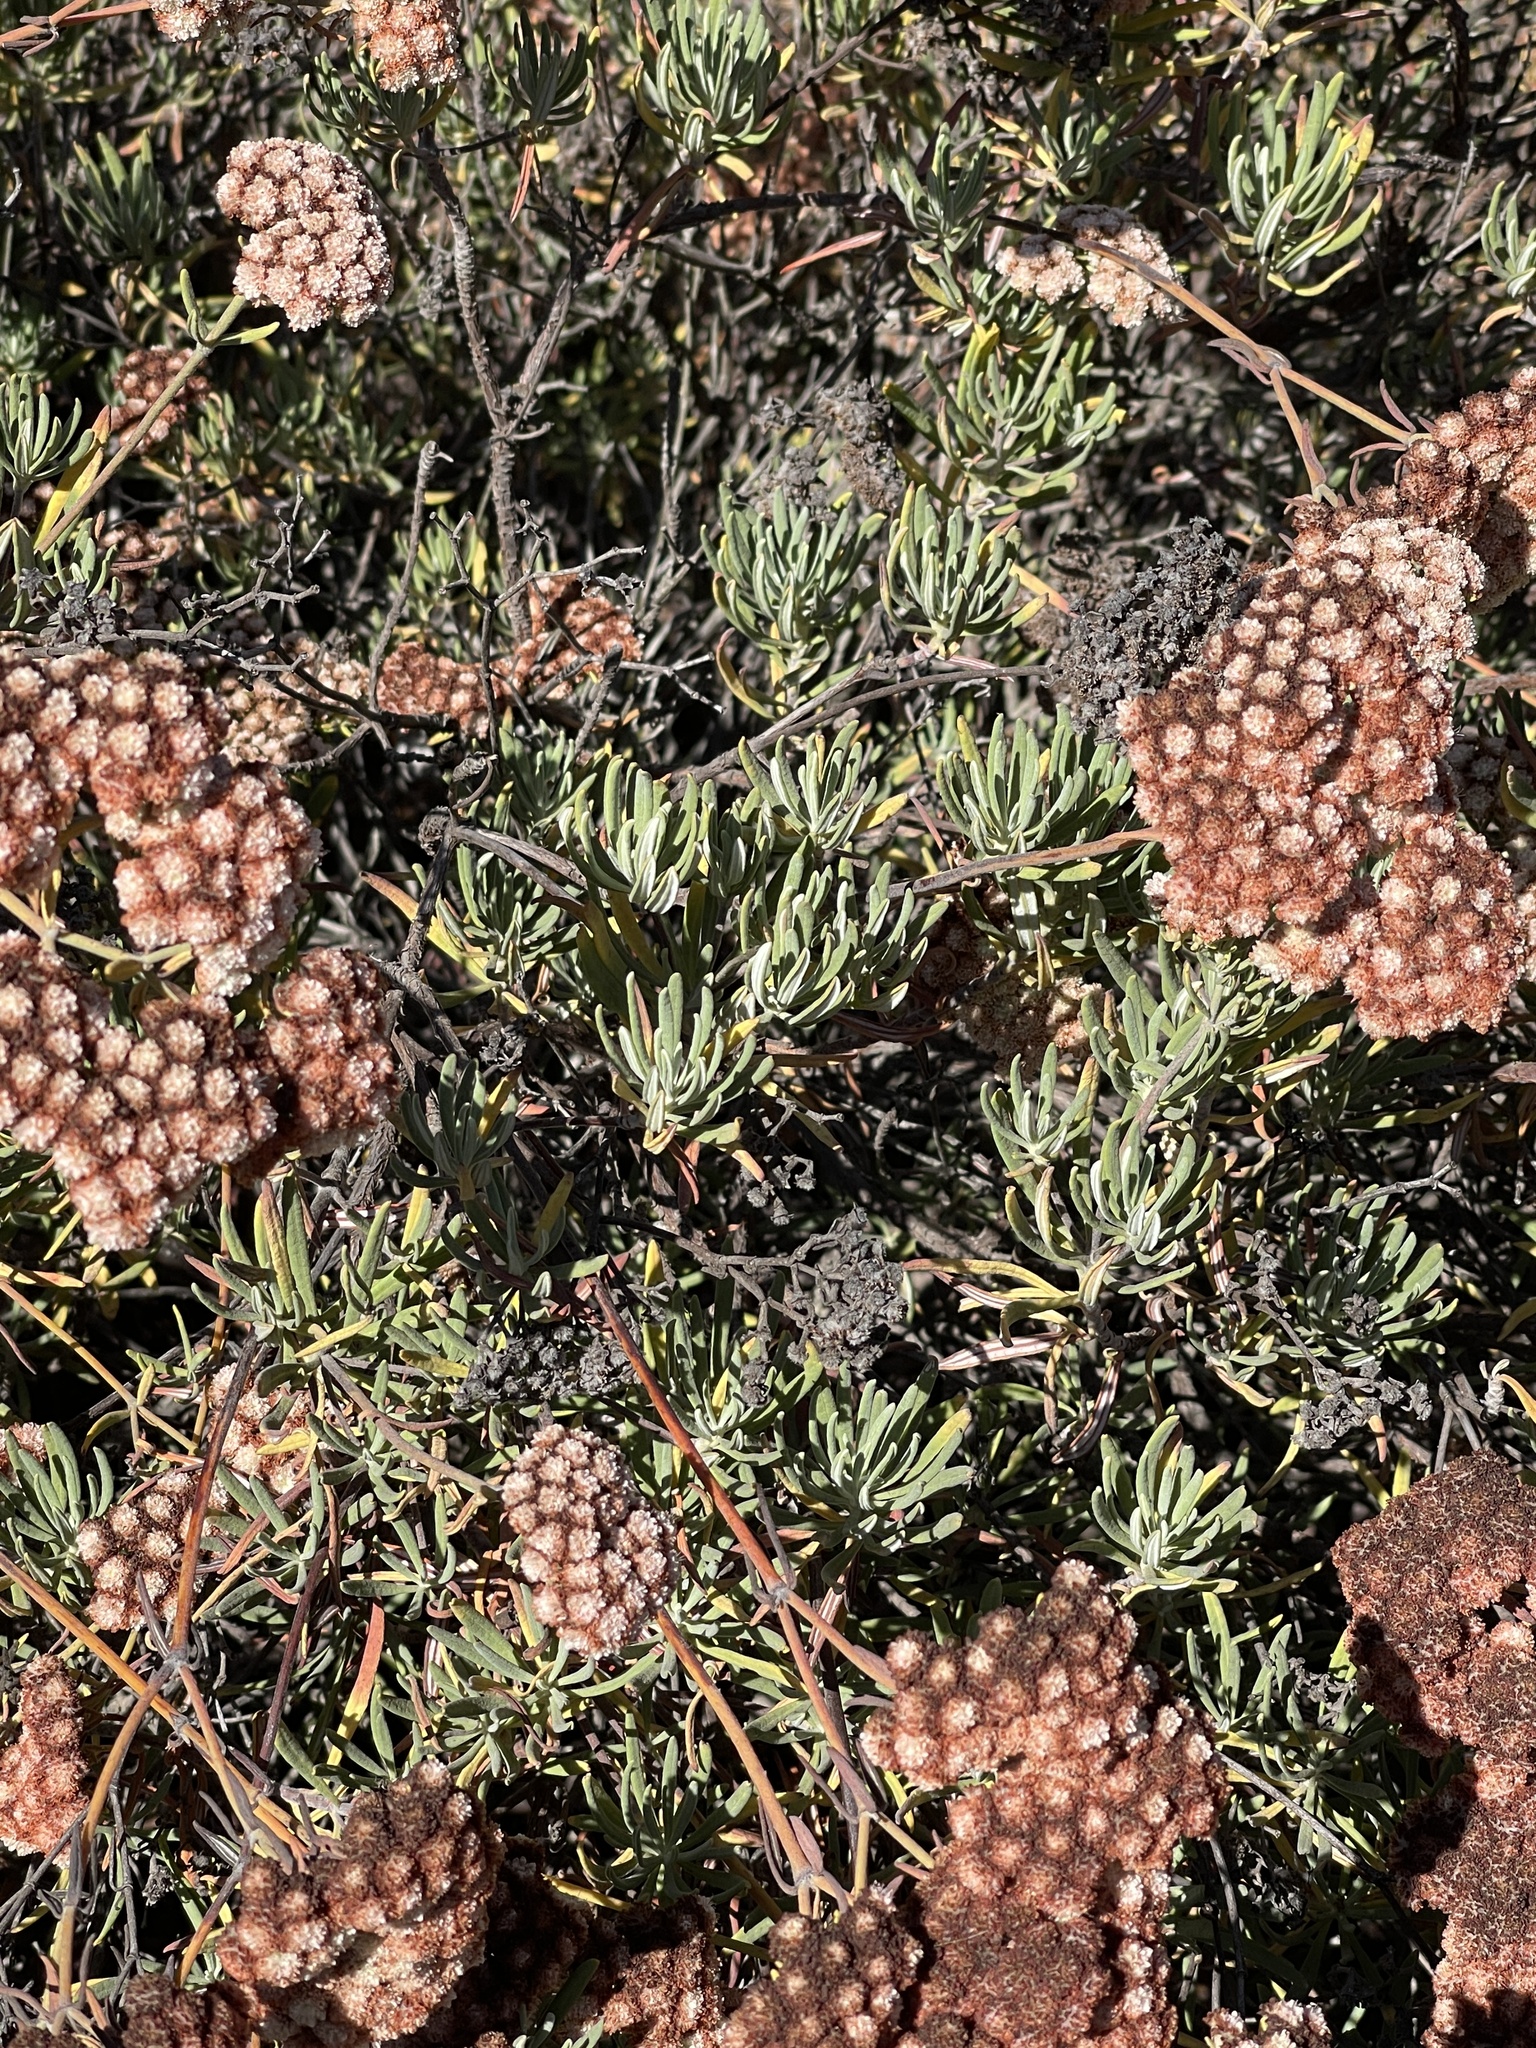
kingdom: Plantae
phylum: Tracheophyta
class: Magnoliopsida
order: Caryophyllales
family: Polygonaceae
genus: Eriogonum
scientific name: Eriogonum arborescens
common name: Island buckwheat
